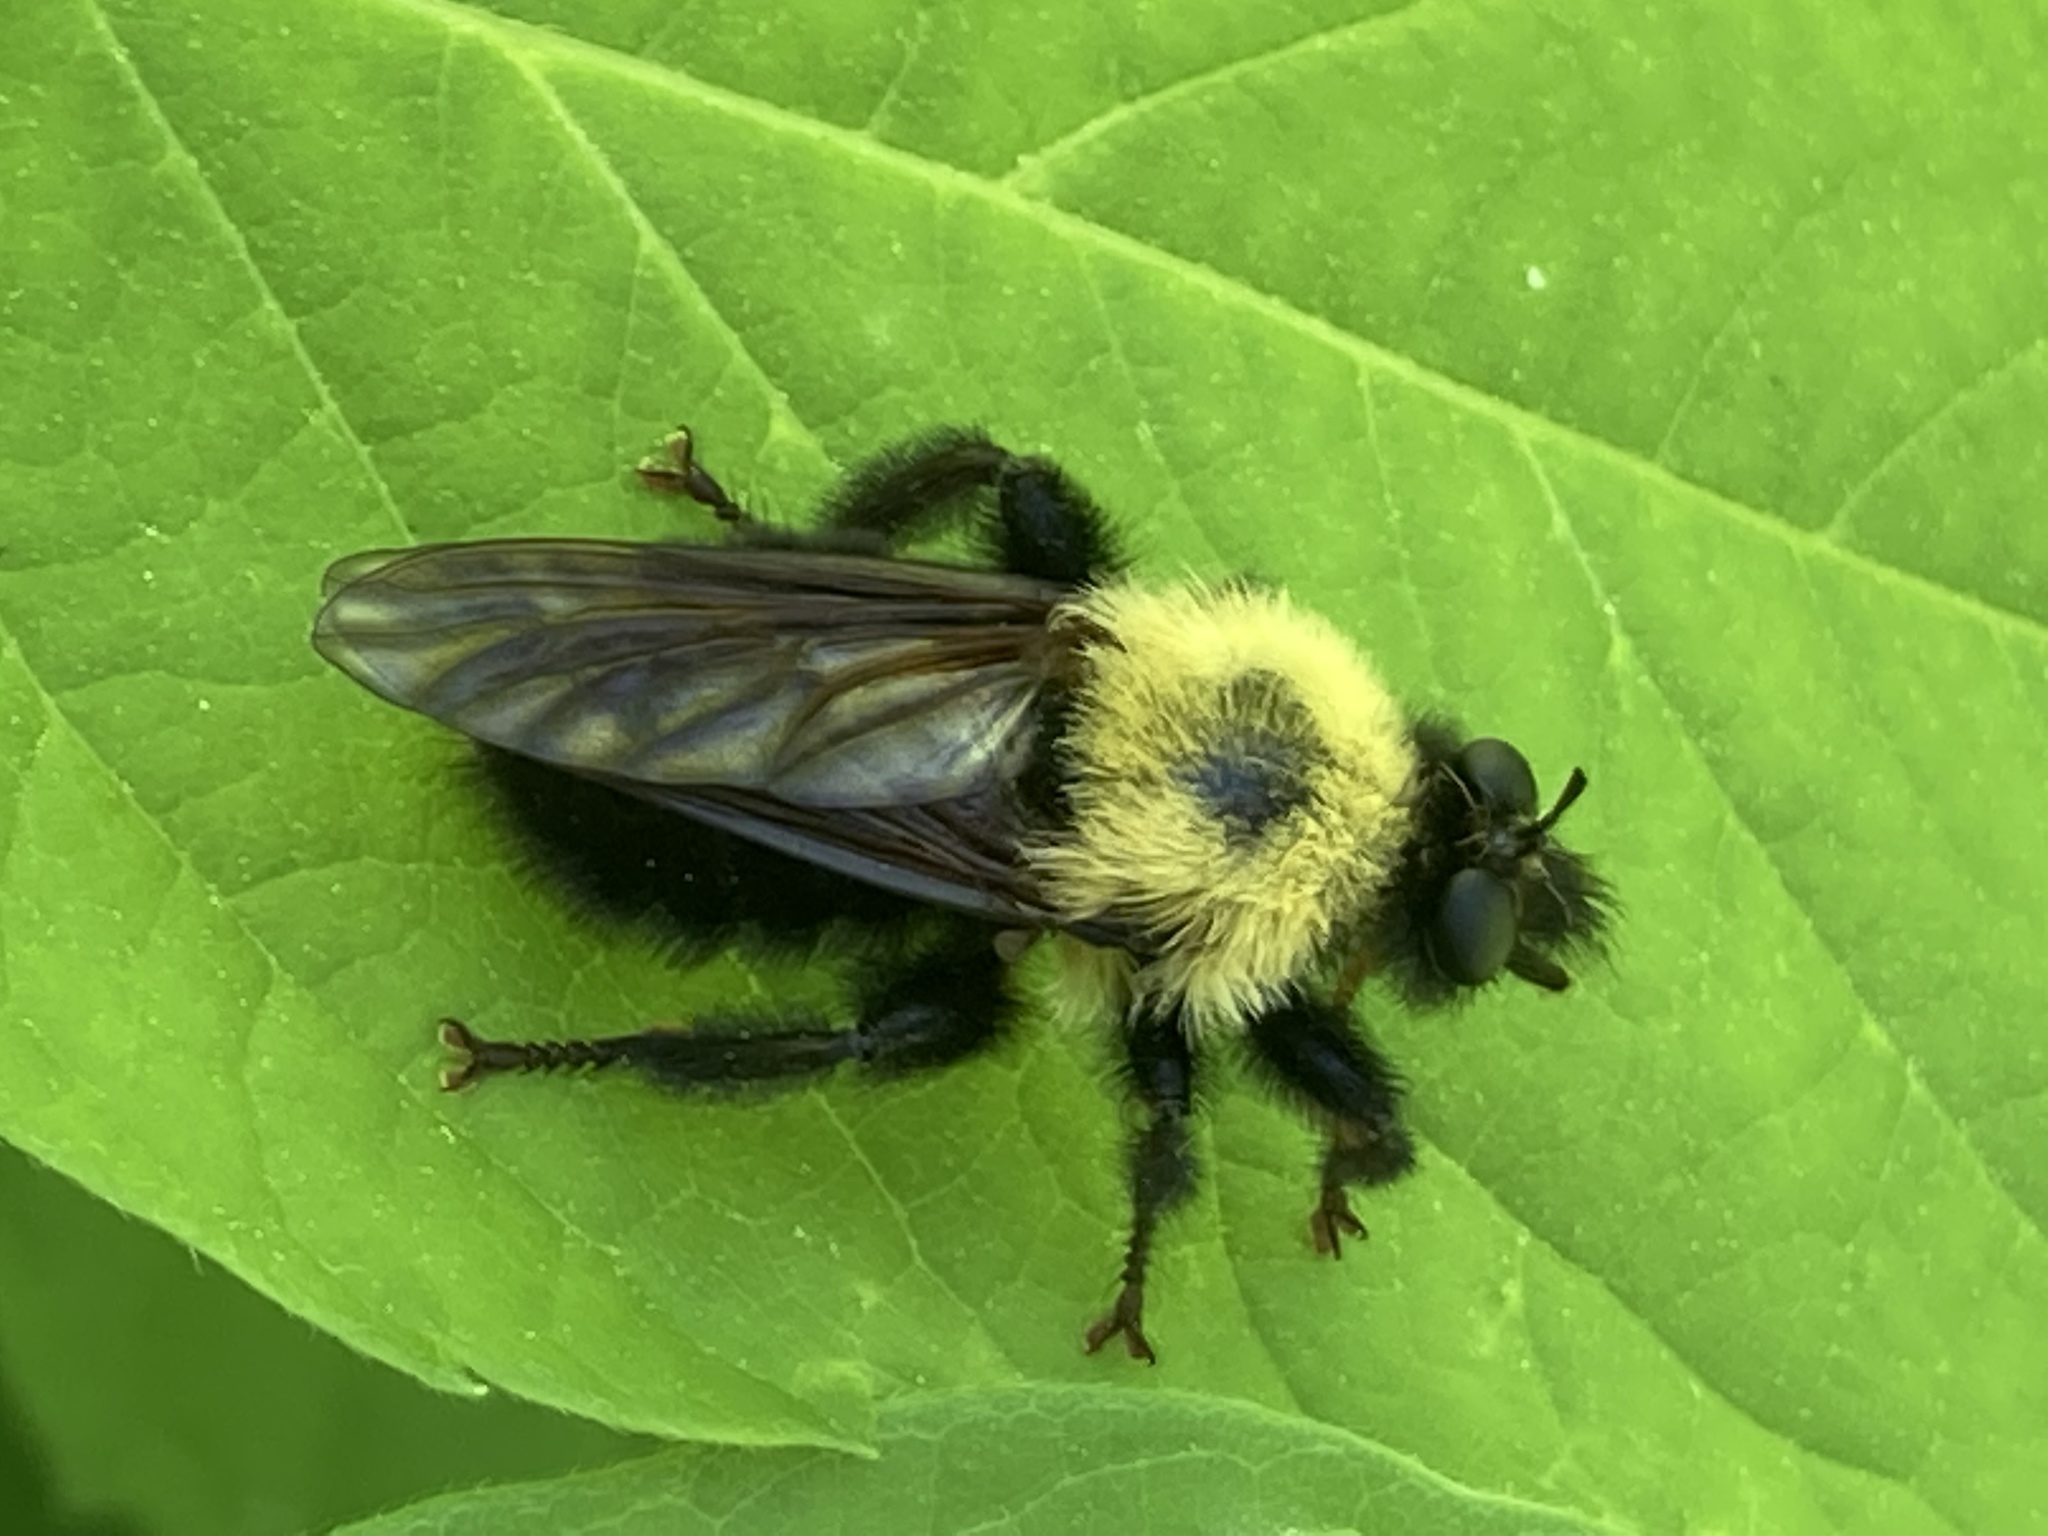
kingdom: Animalia
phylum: Arthropoda
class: Insecta
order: Diptera
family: Asilidae
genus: Laphria
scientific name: Laphria thoracica
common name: Bumble bee mimic robber fly
